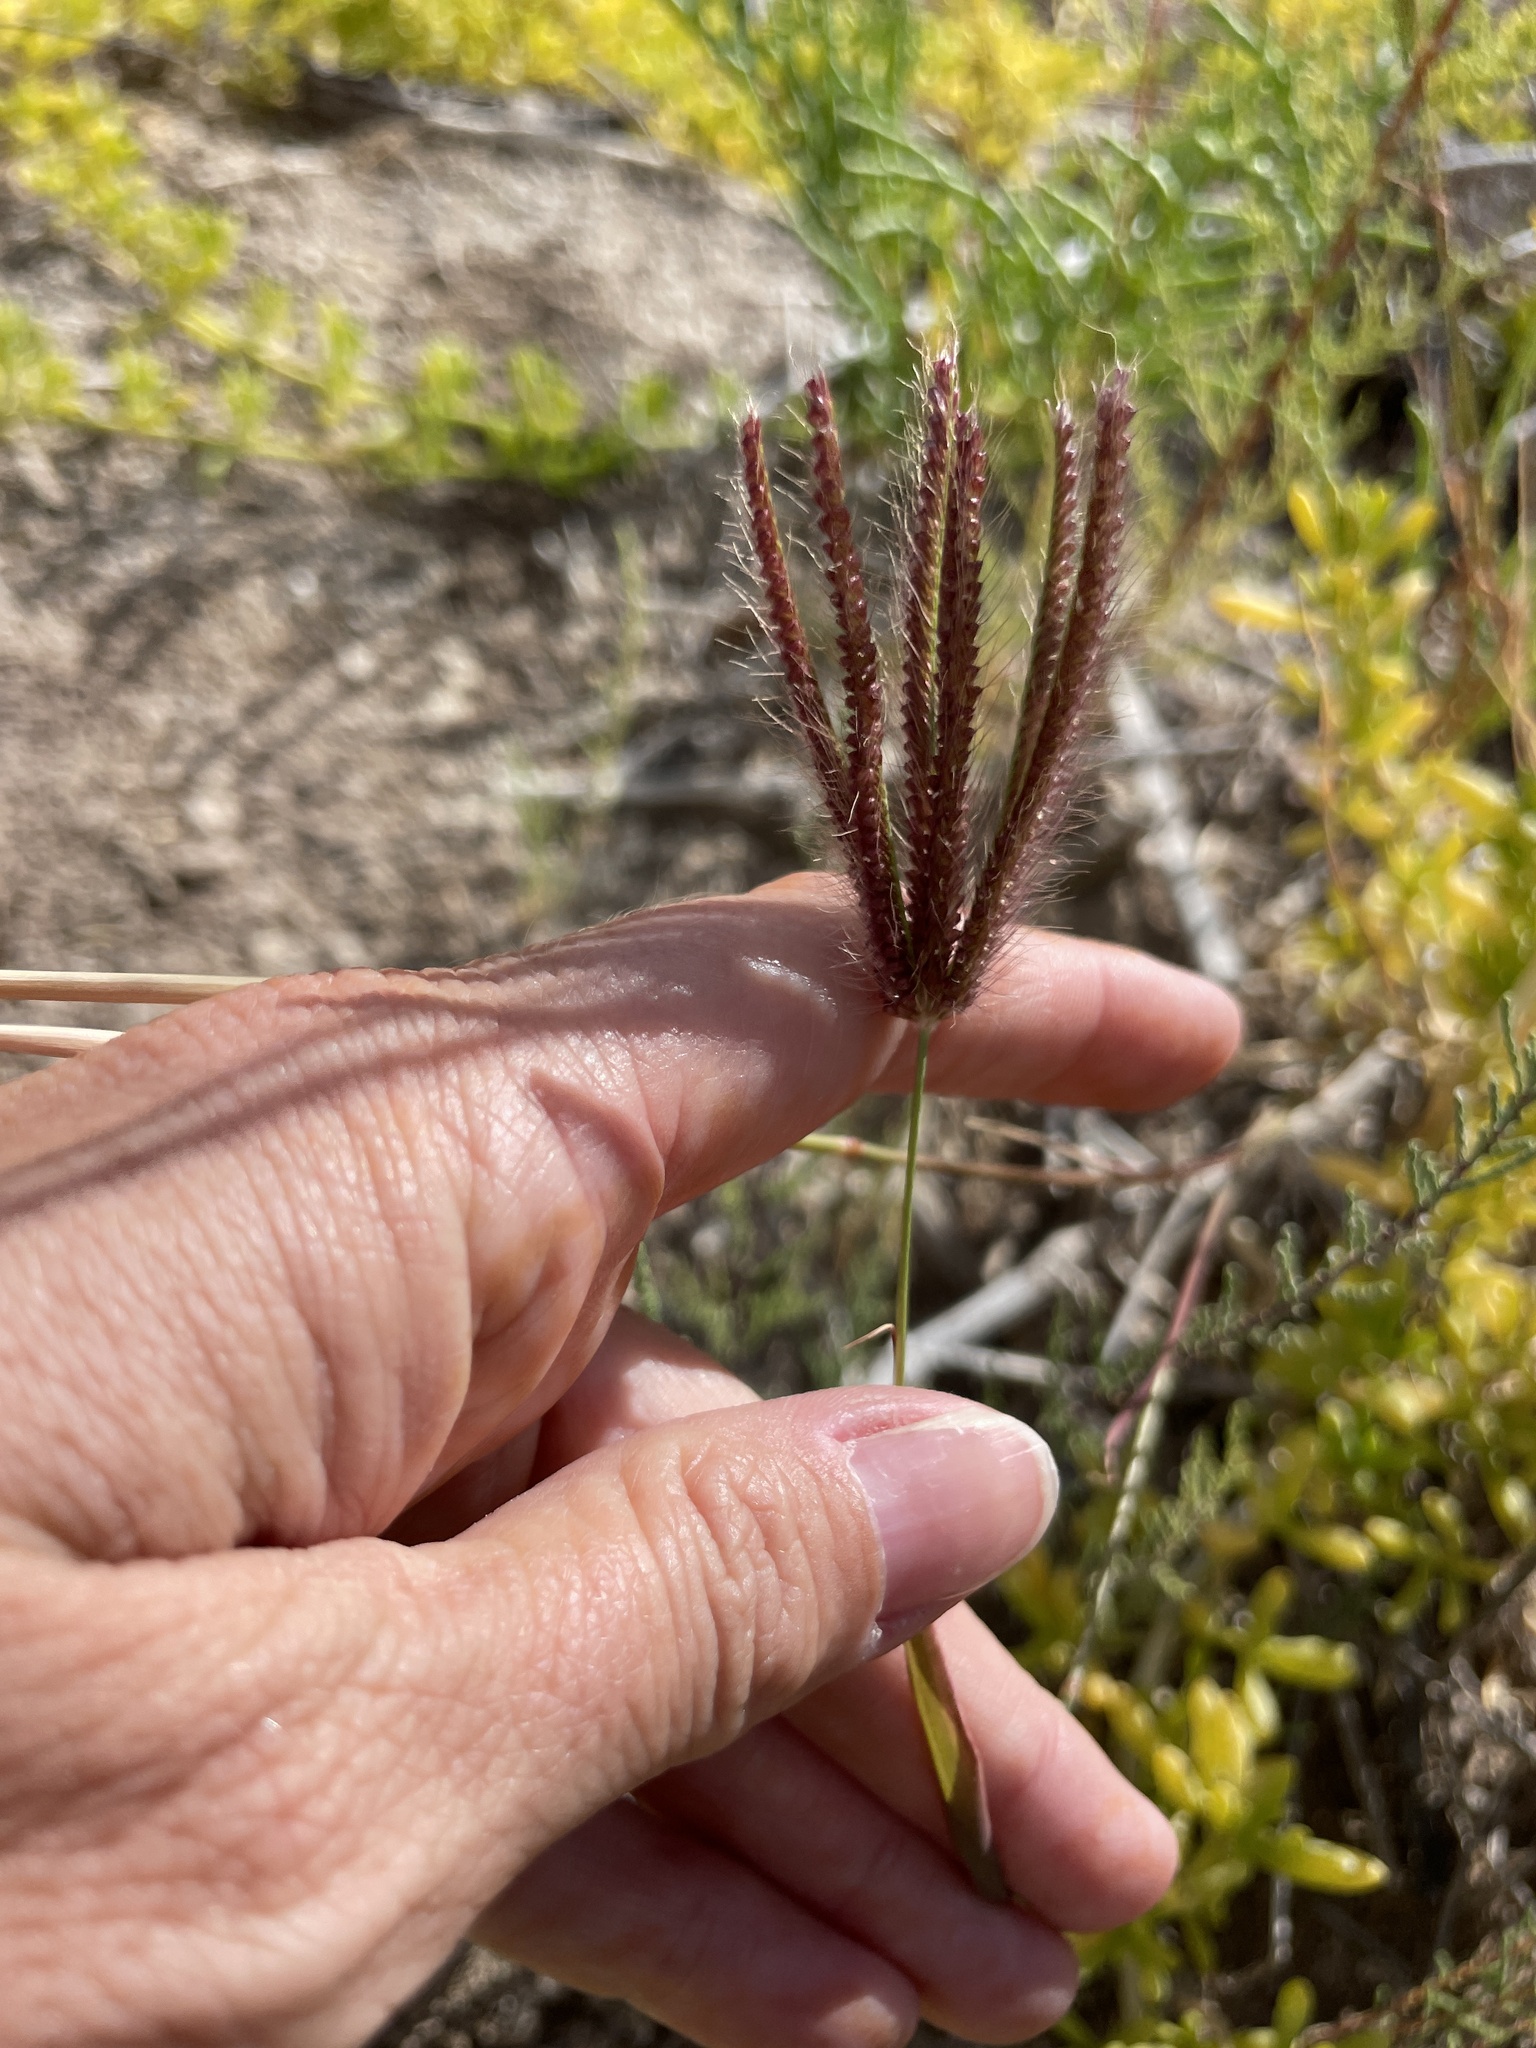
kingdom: Plantae
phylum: Tracheophyta
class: Liliopsida
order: Poales
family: Poaceae
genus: Chloris
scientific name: Chloris barbata
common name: Swollen fingergrass
